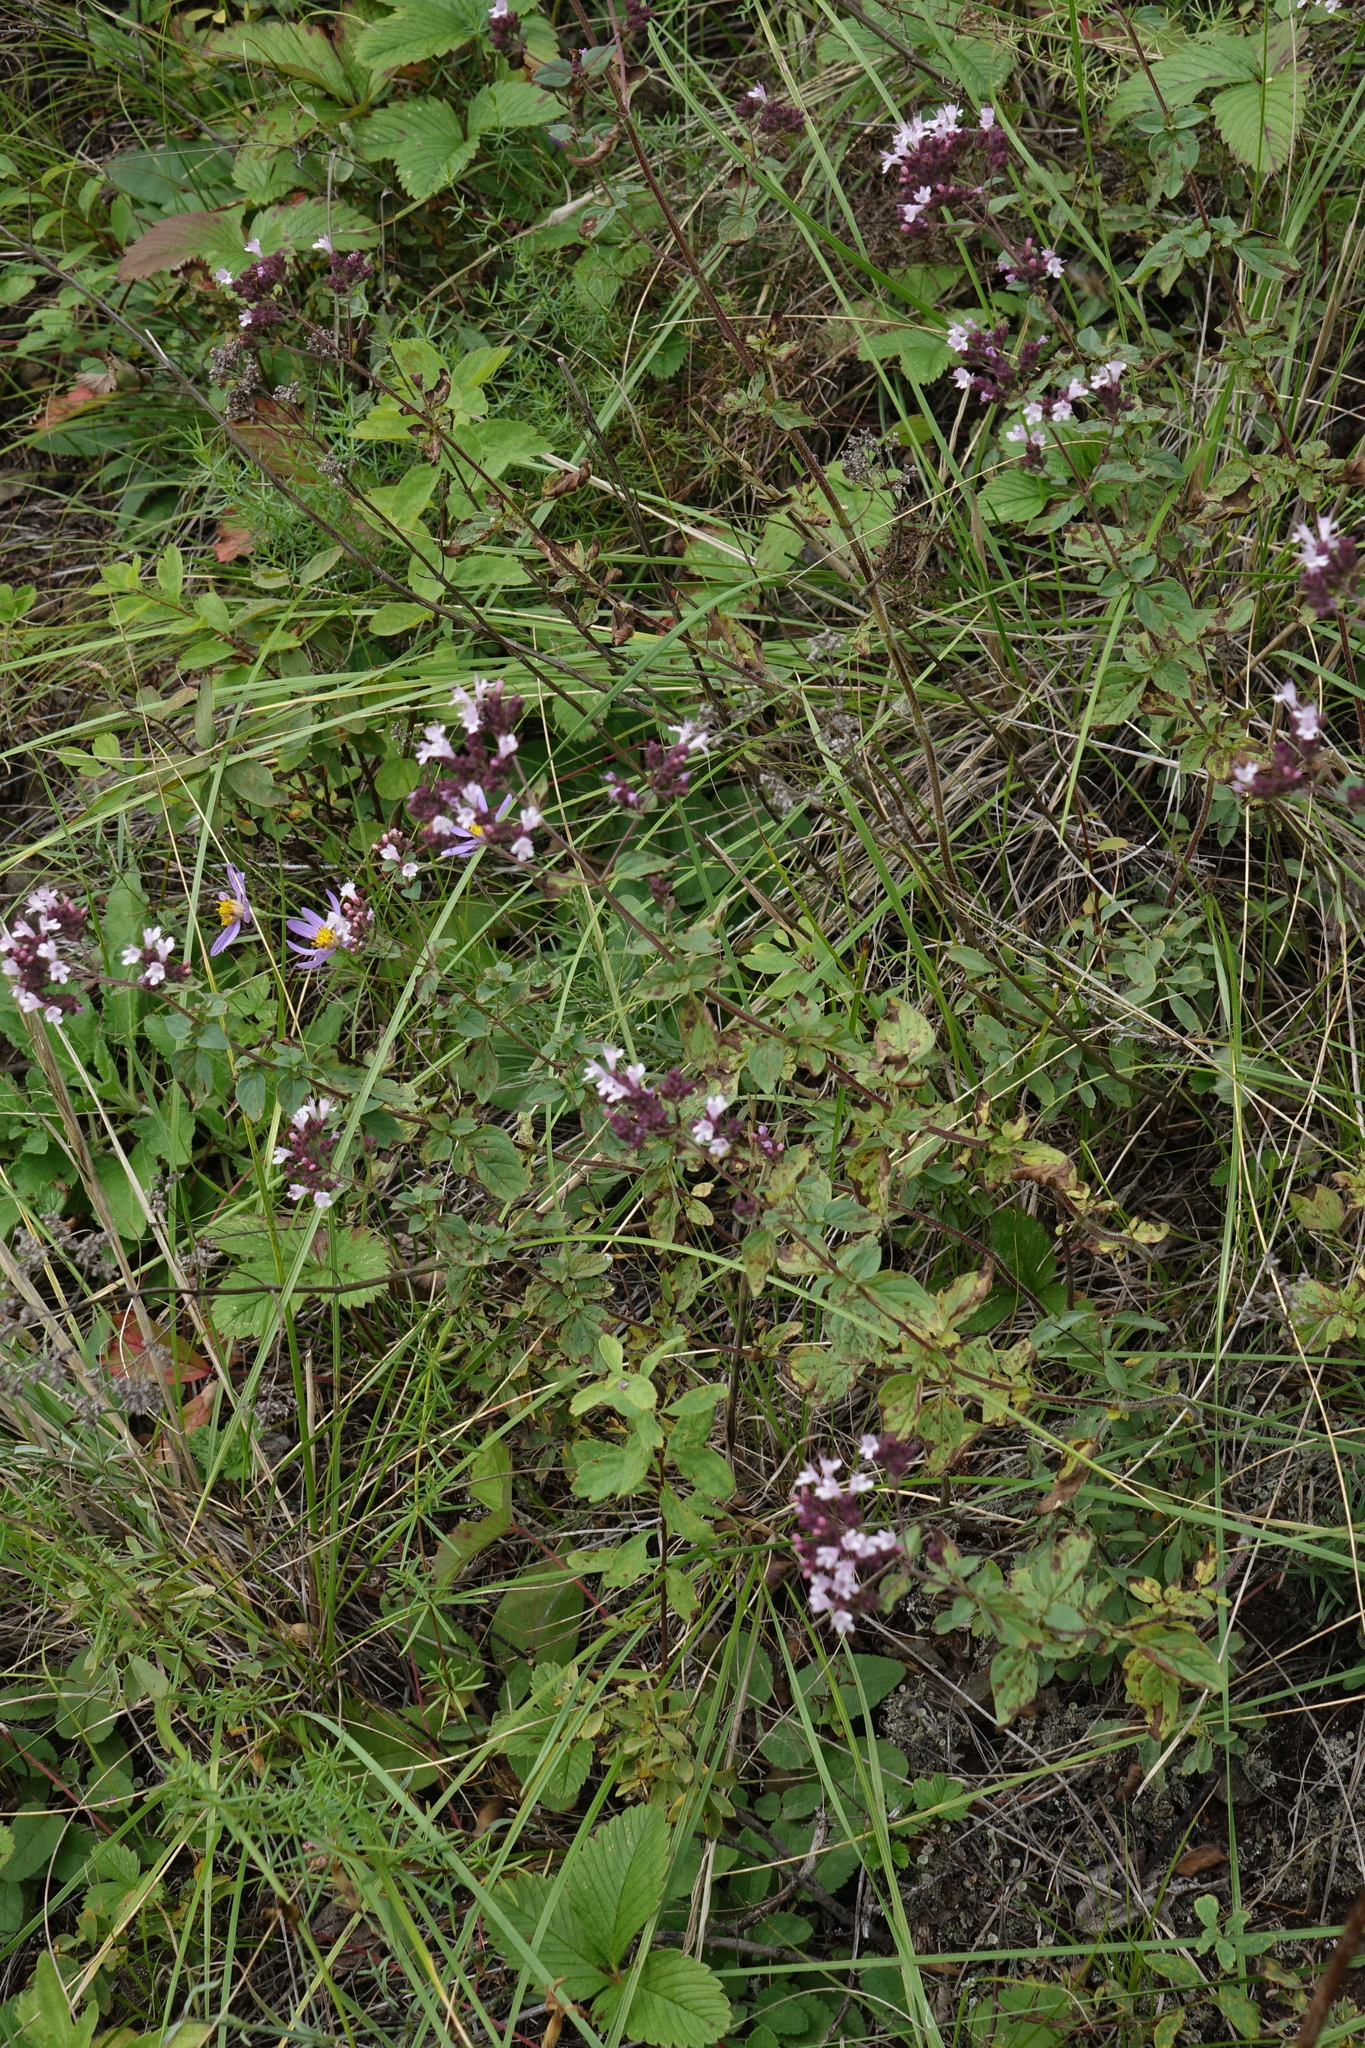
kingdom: Plantae
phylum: Tracheophyta
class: Magnoliopsida
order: Lamiales
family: Lamiaceae
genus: Origanum
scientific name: Origanum vulgare
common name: Wild marjoram
